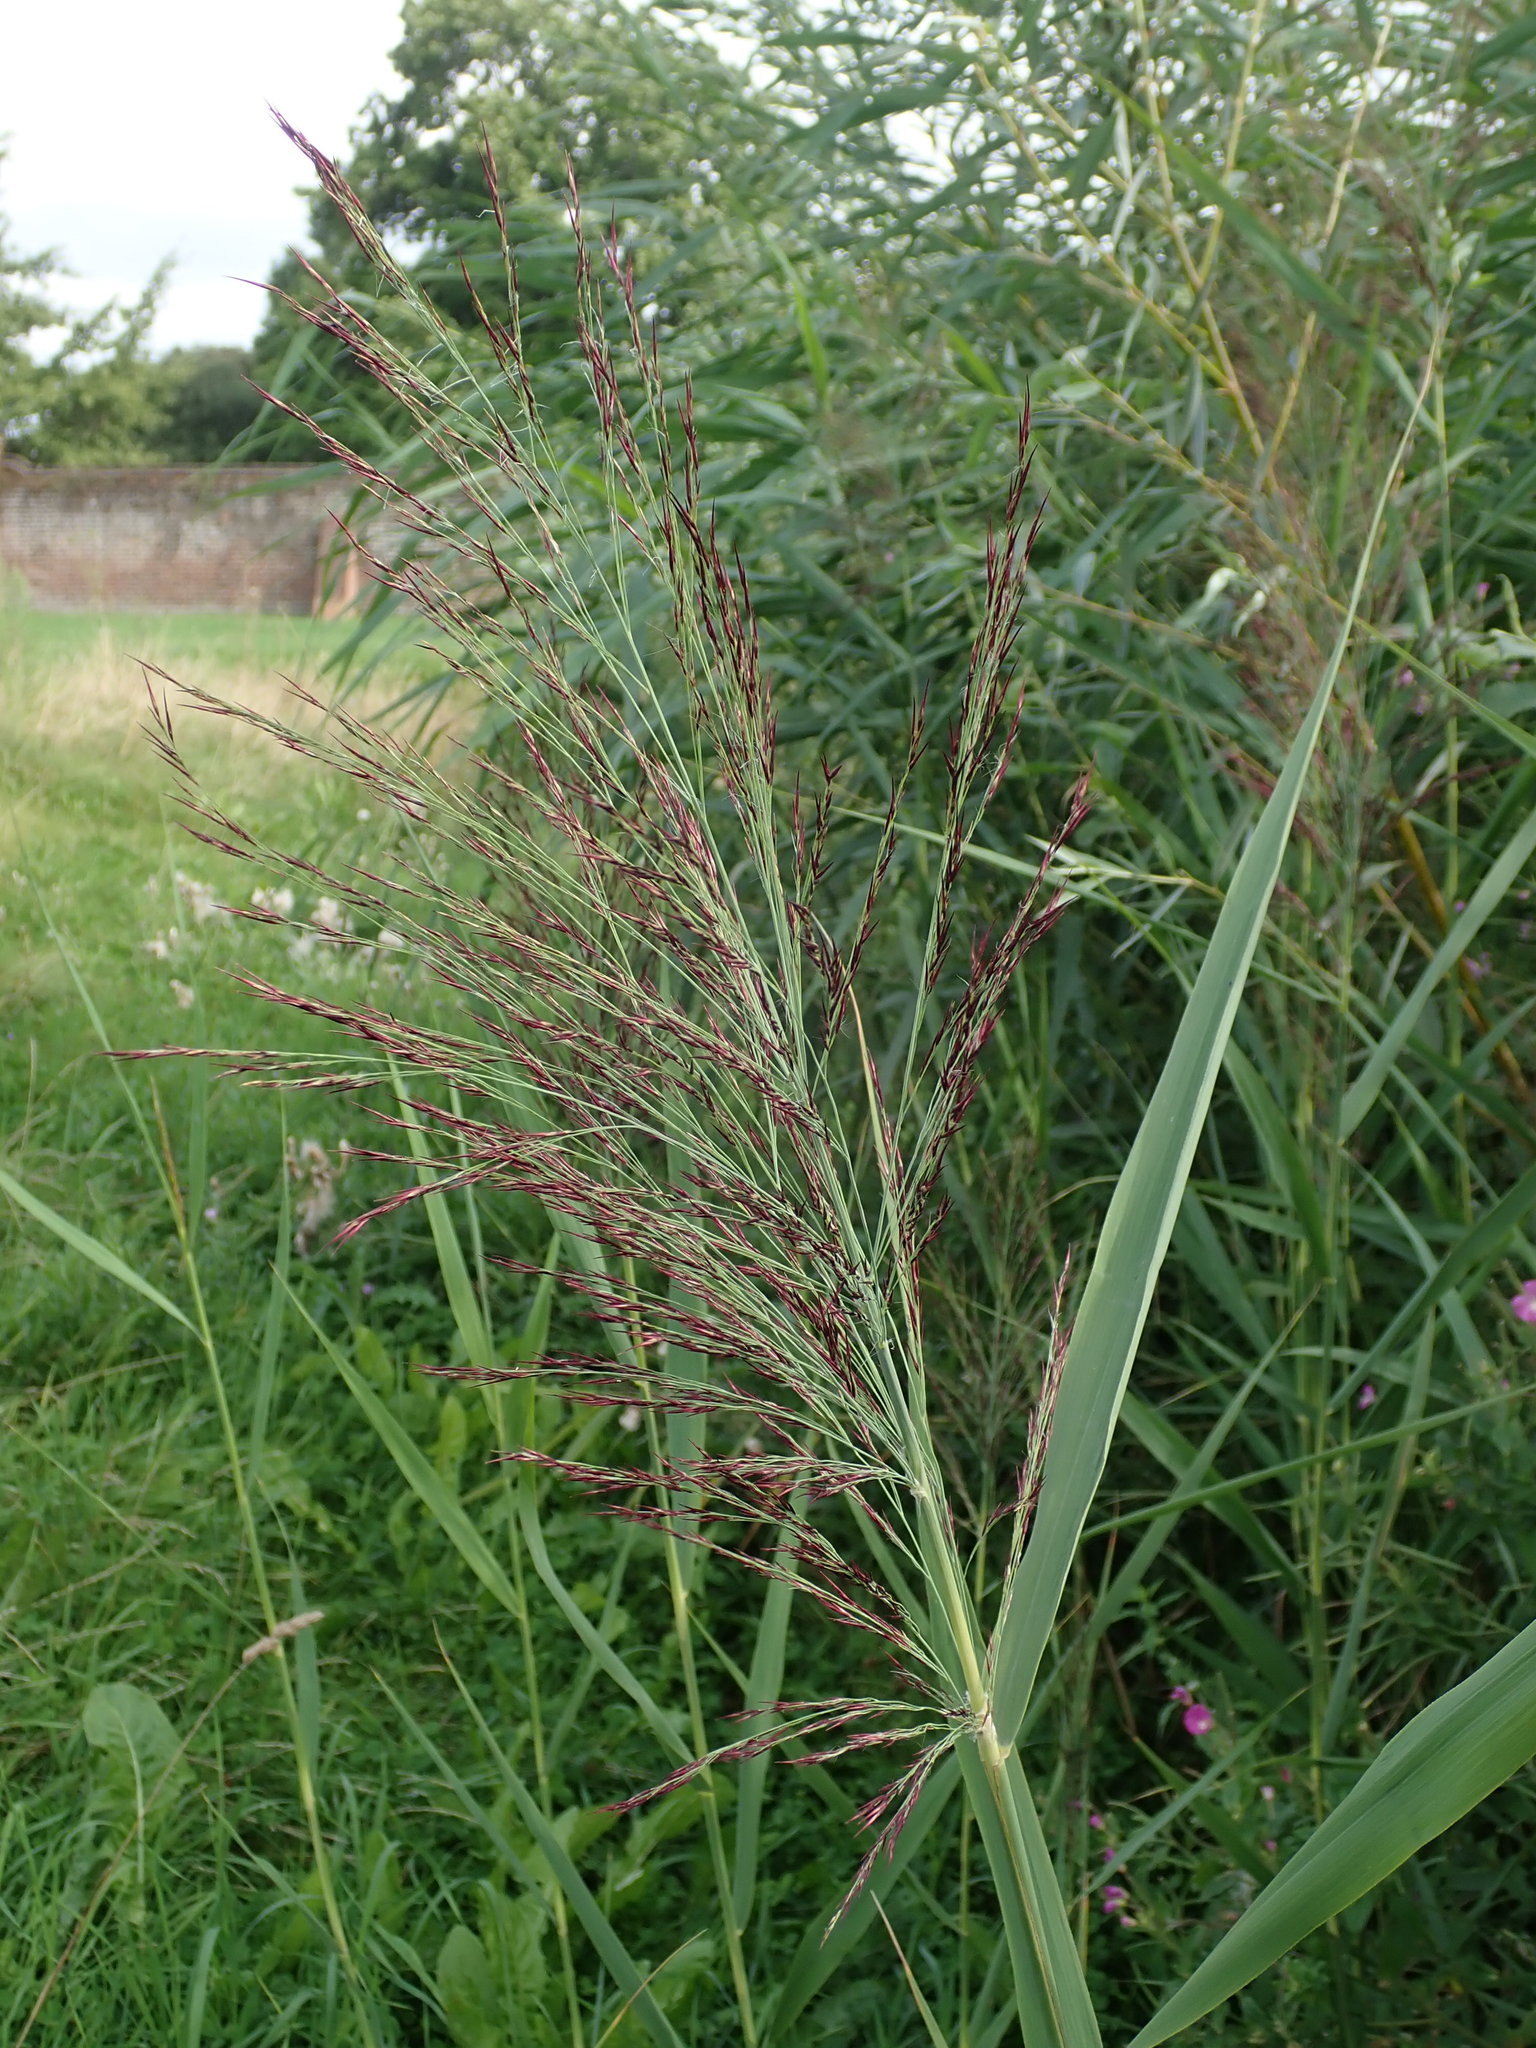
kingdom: Plantae
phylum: Tracheophyta
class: Liliopsida
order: Poales
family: Poaceae
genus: Phragmites
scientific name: Phragmites australis
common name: Common reed
